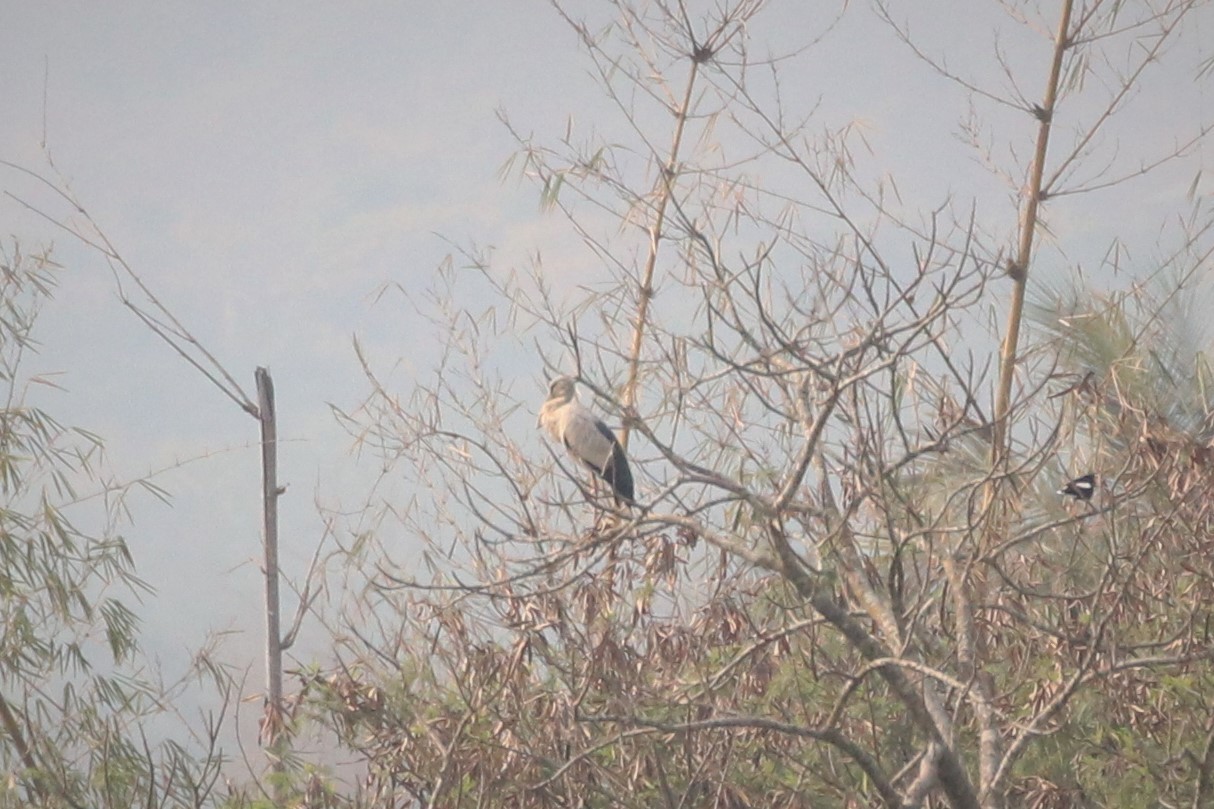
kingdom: Animalia
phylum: Chordata
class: Aves
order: Ciconiiformes
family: Ciconiidae
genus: Anastomus
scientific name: Anastomus oscitans
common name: Asian openbill
